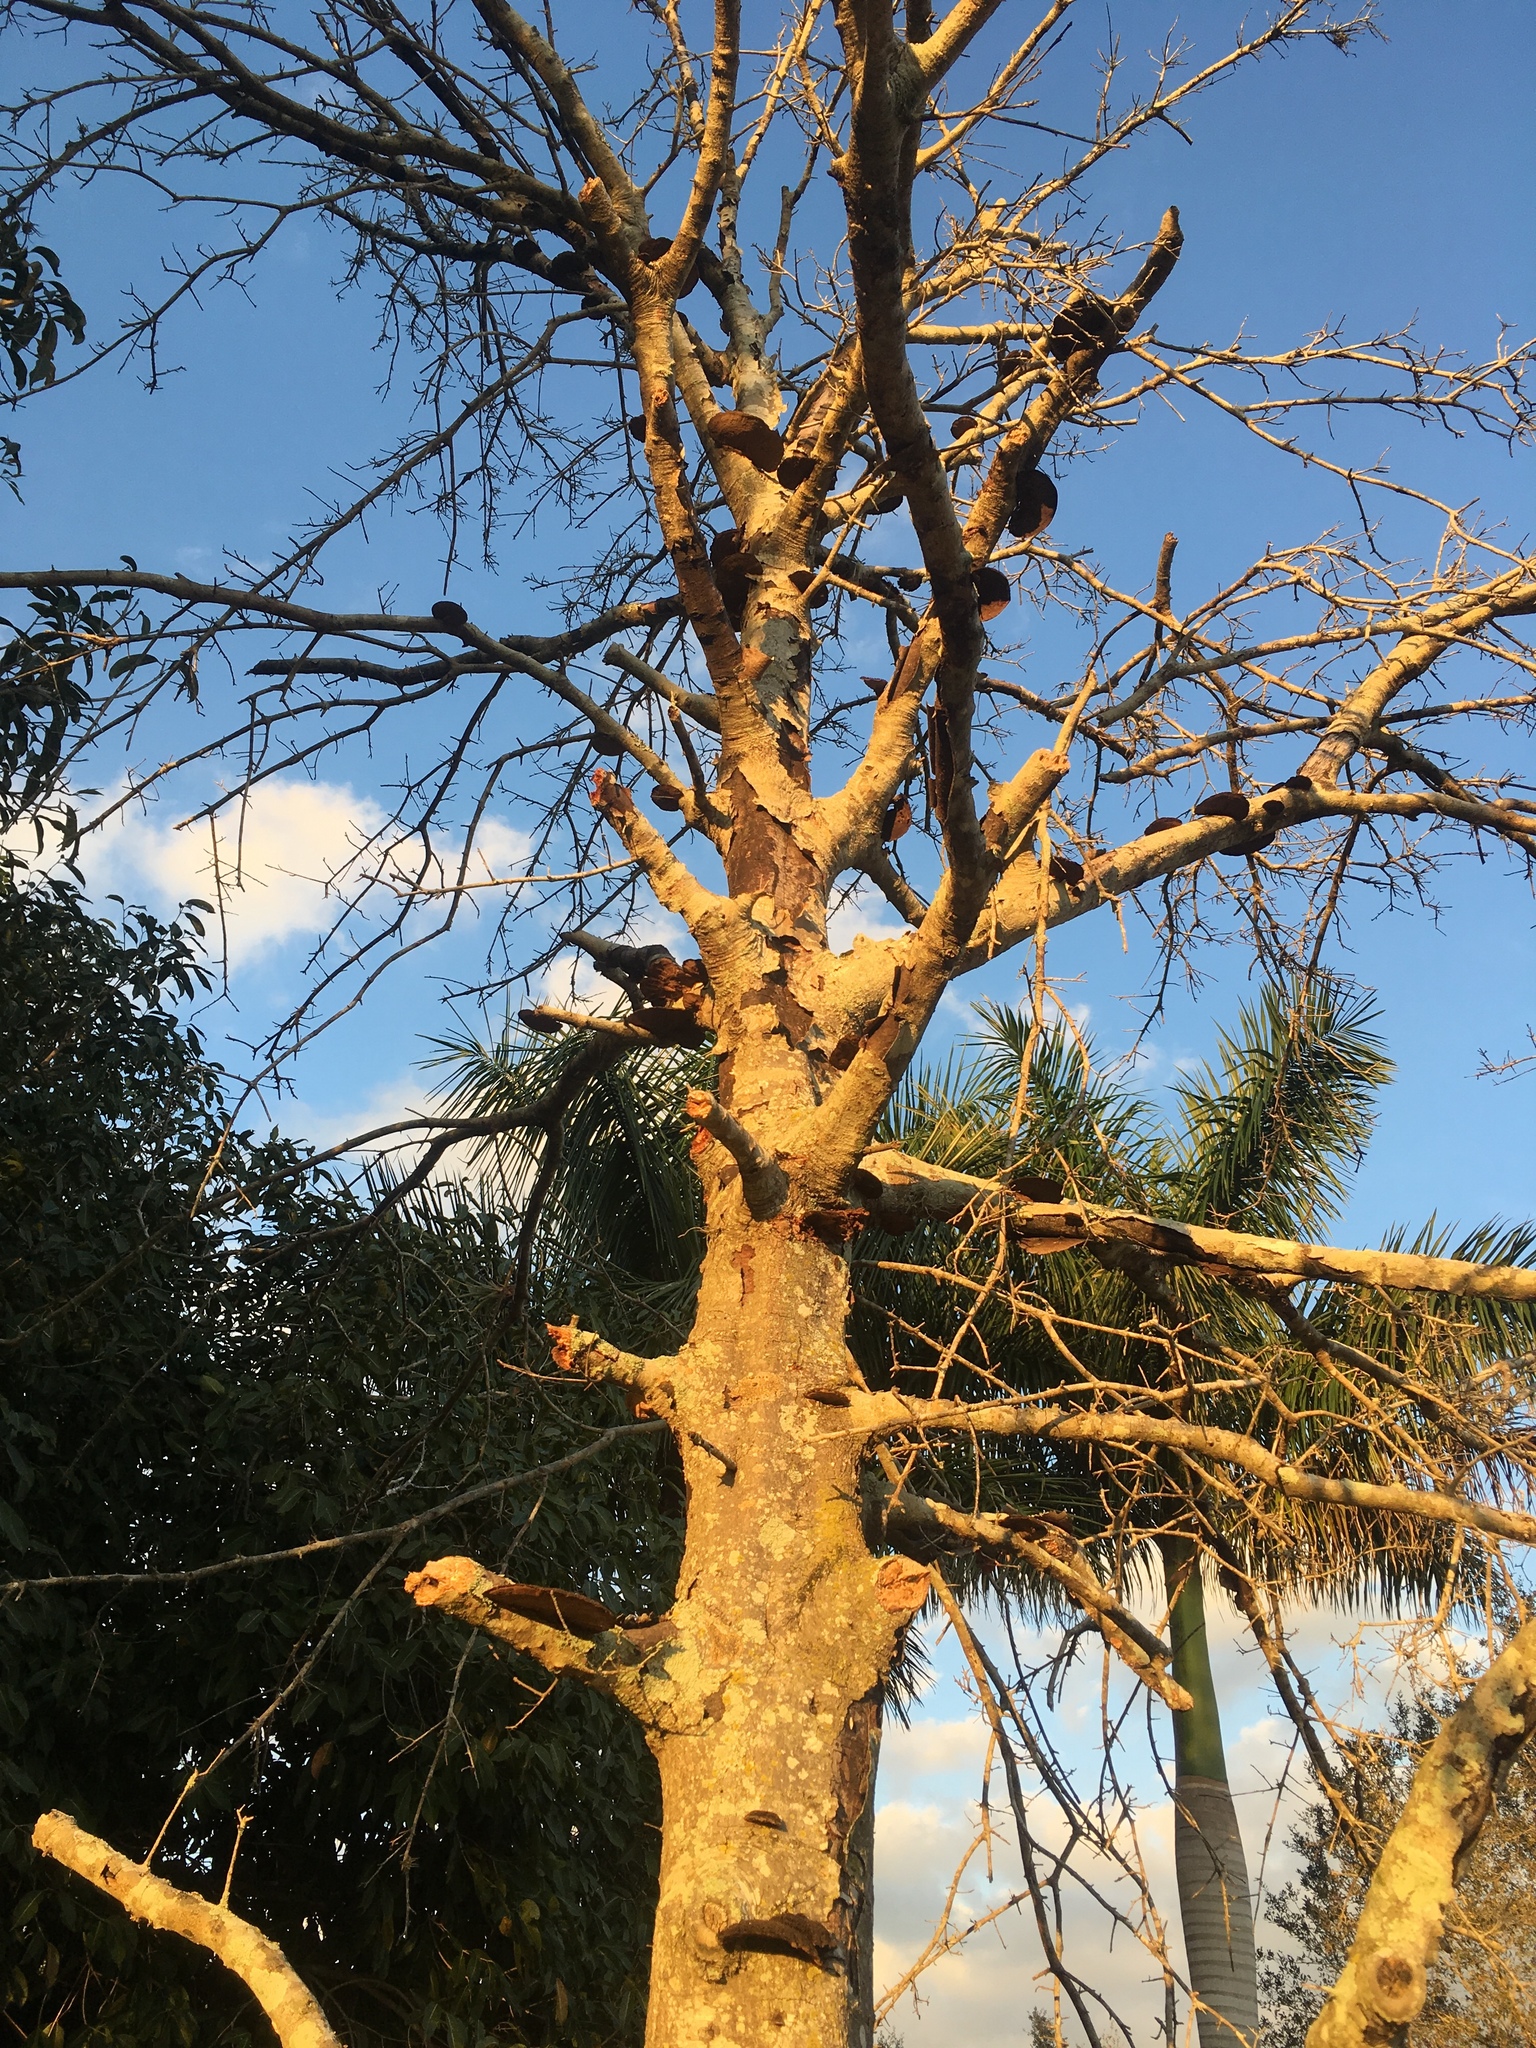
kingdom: Fungi
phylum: Basidiomycota
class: Agaricomycetes
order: Polyporales
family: Cerrenaceae
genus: Cerrena
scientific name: Cerrena hydnoides
